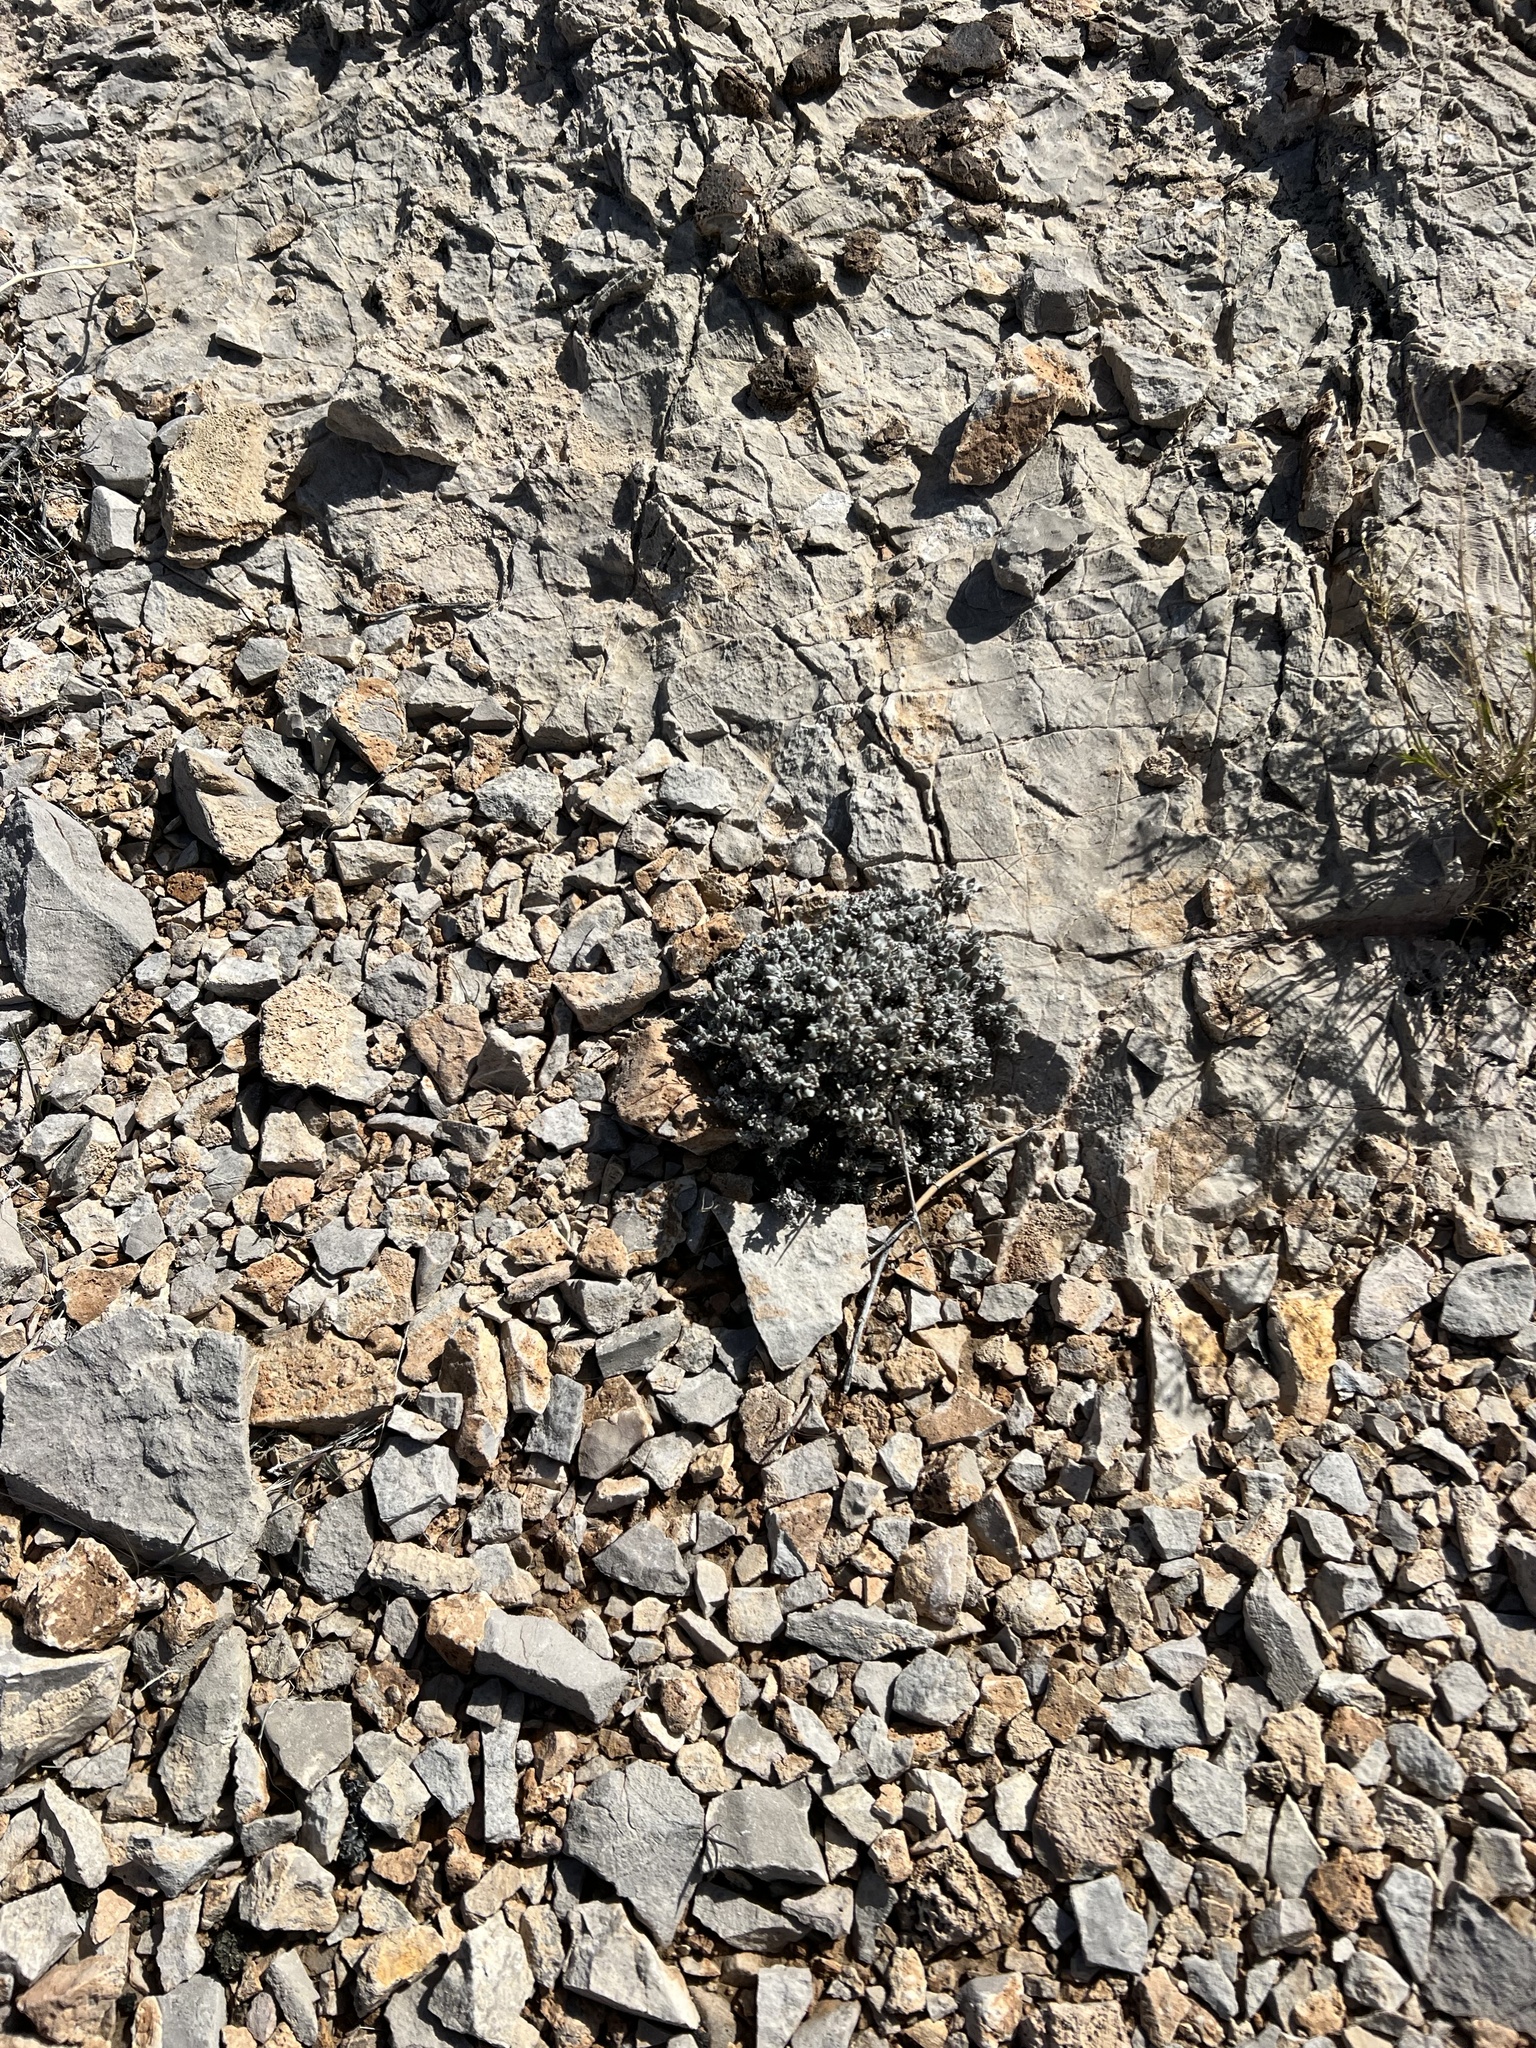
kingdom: Plantae
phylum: Tracheophyta
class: Magnoliopsida
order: Boraginales
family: Ehretiaceae
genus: Tiquilia
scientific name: Tiquilia canescens
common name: Hairy tiquilia
